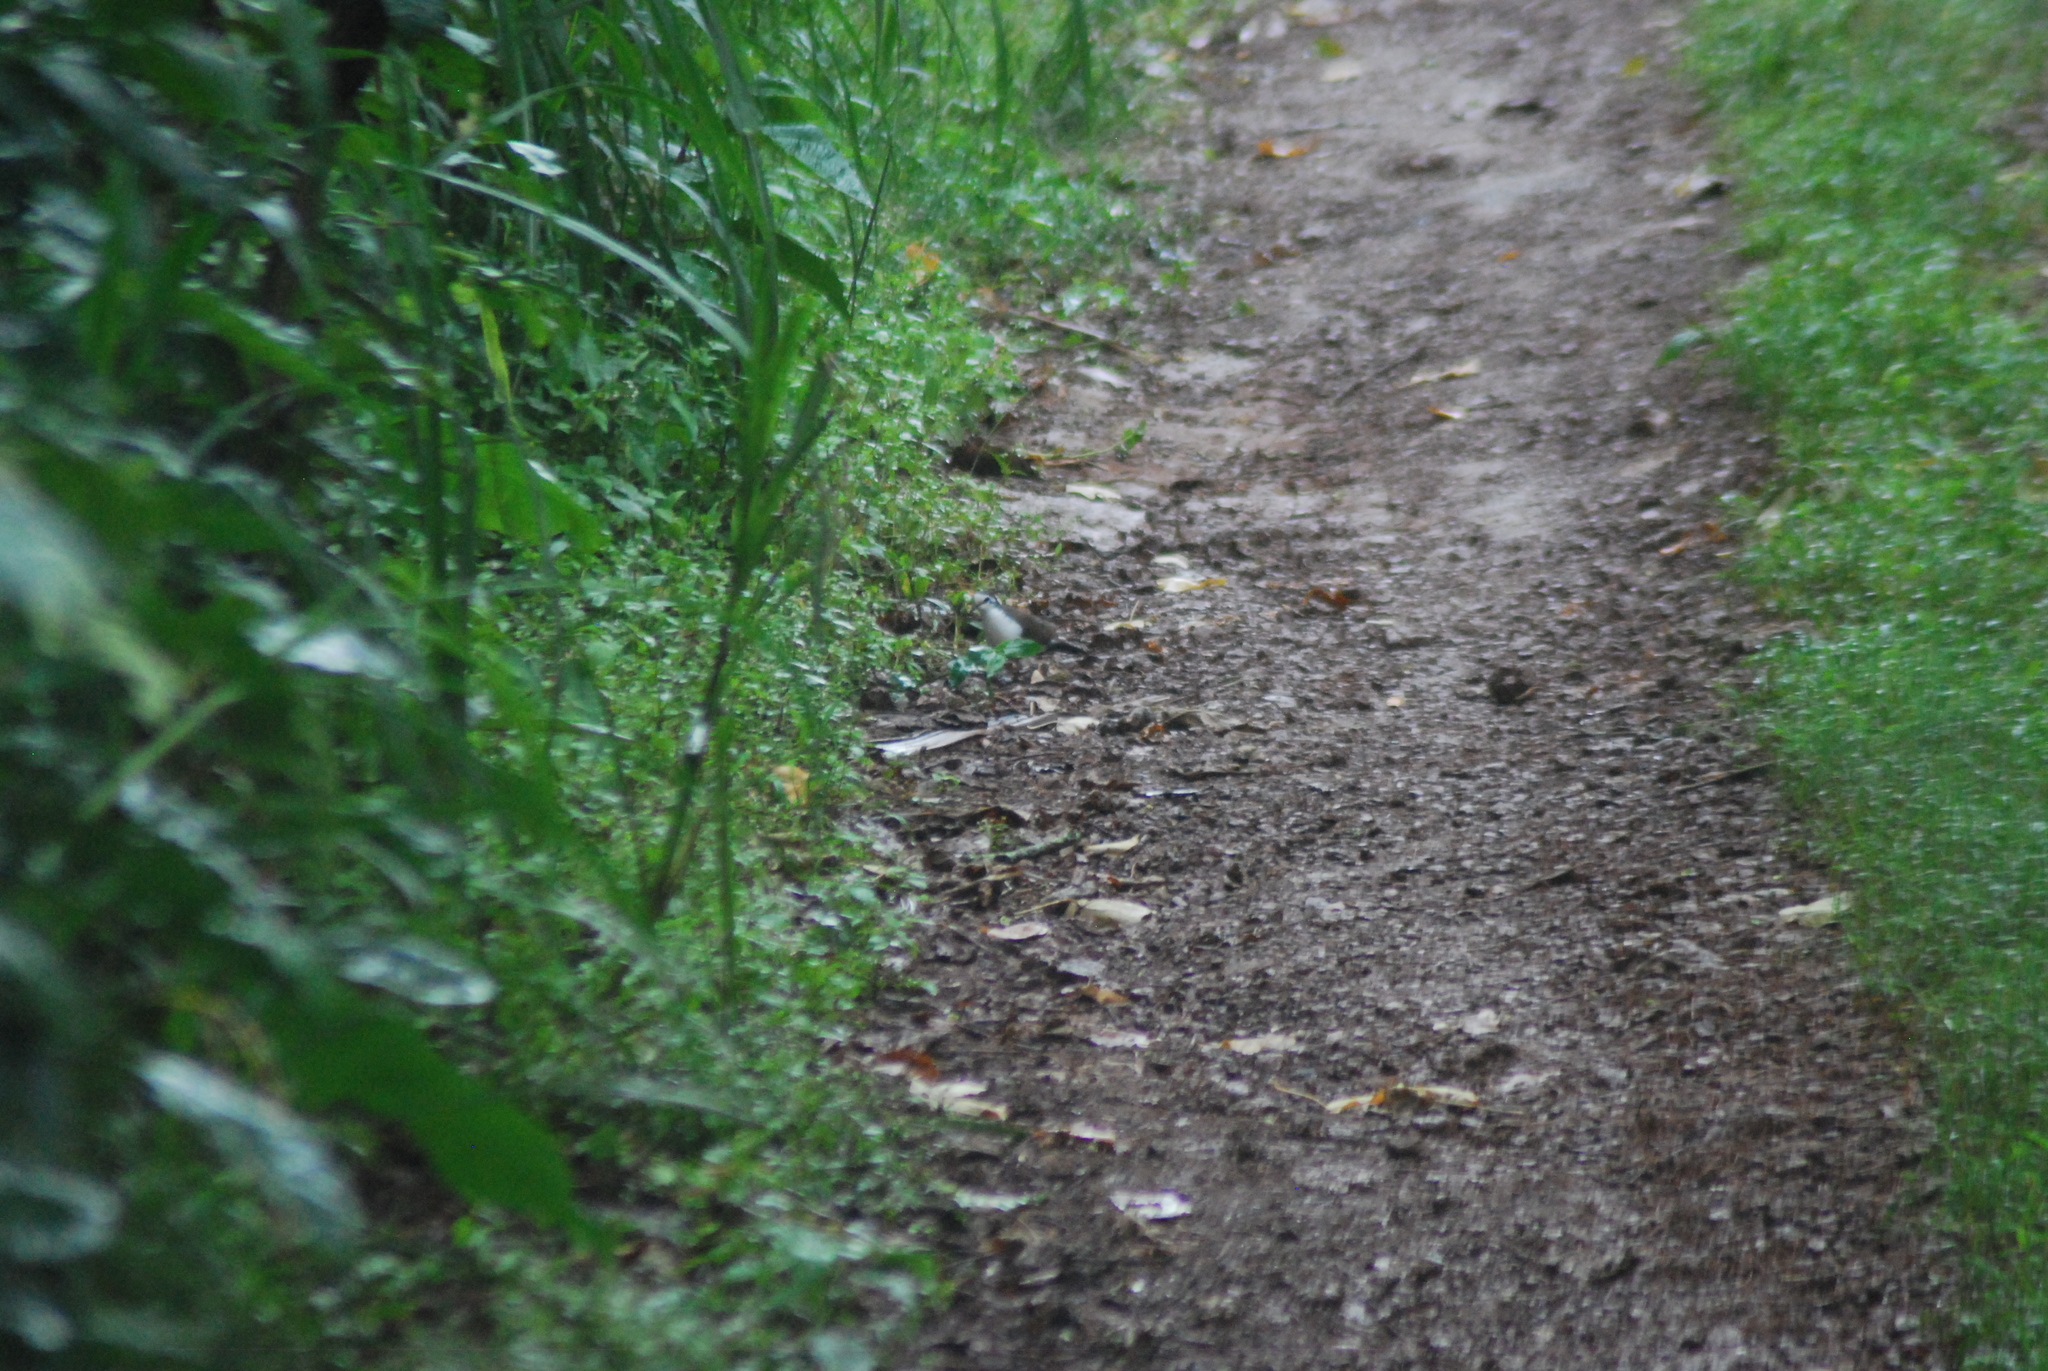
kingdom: Animalia
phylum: Chordata
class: Aves
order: Columbiformes
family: Columbidae
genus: Turtur
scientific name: Turtur tympanistria
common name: Tambourine dove
